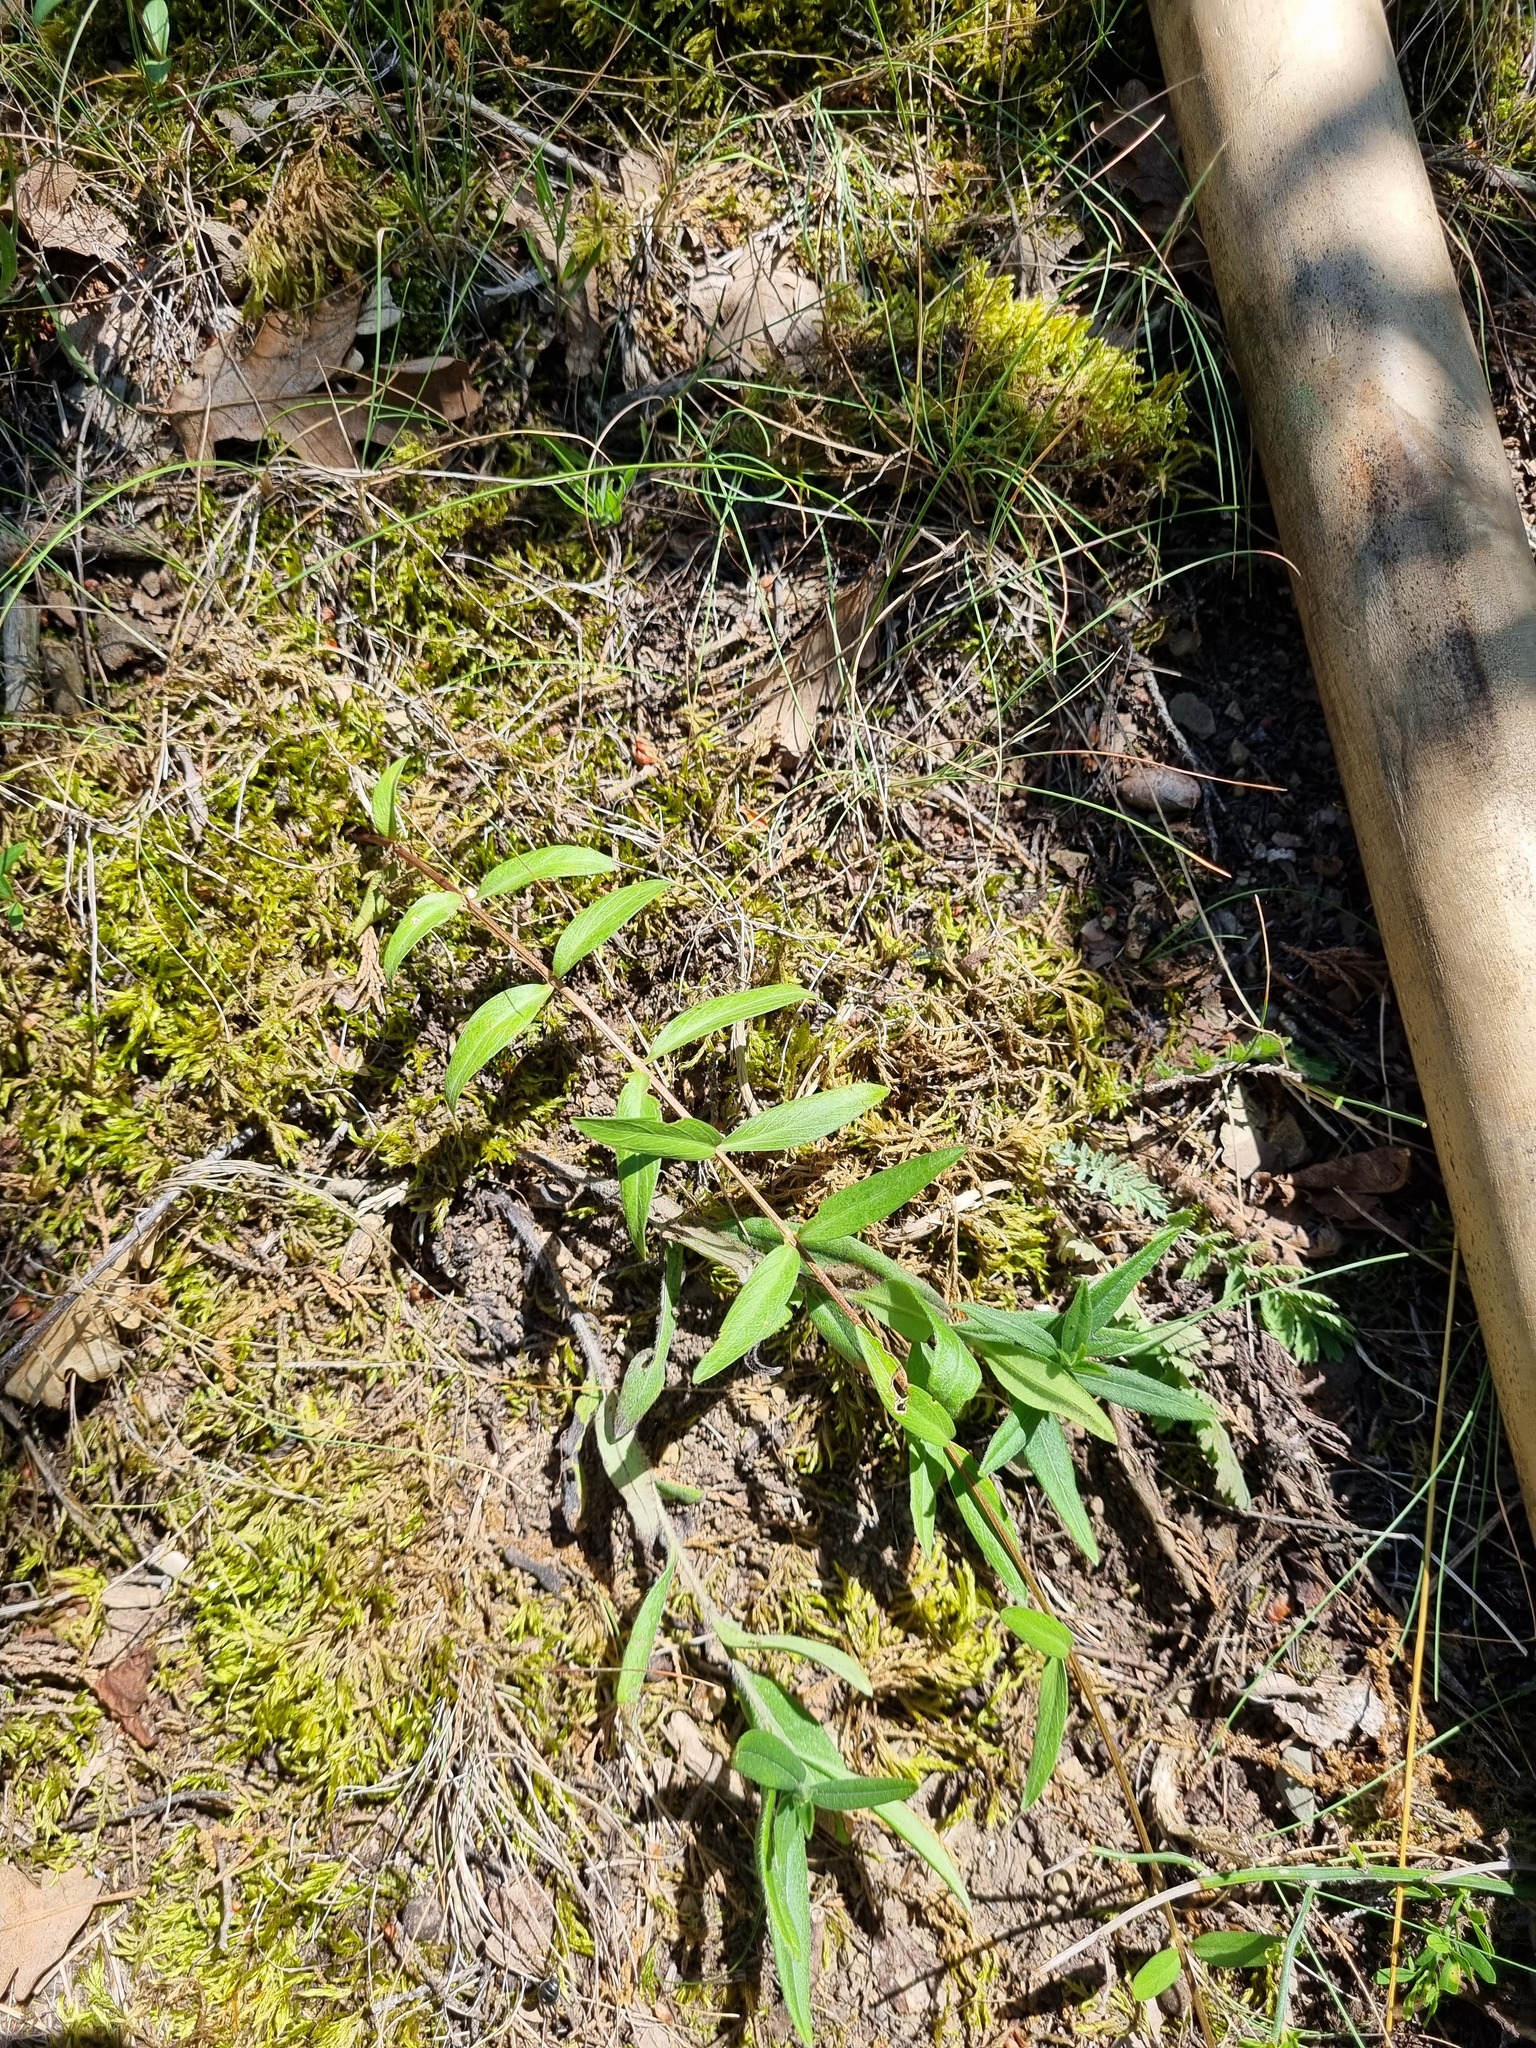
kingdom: Plantae
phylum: Tracheophyta
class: Magnoliopsida
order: Gentianales
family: Apocynaceae
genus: Vinca
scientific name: Vinca herbacea
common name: Herbaceous periwinkle
